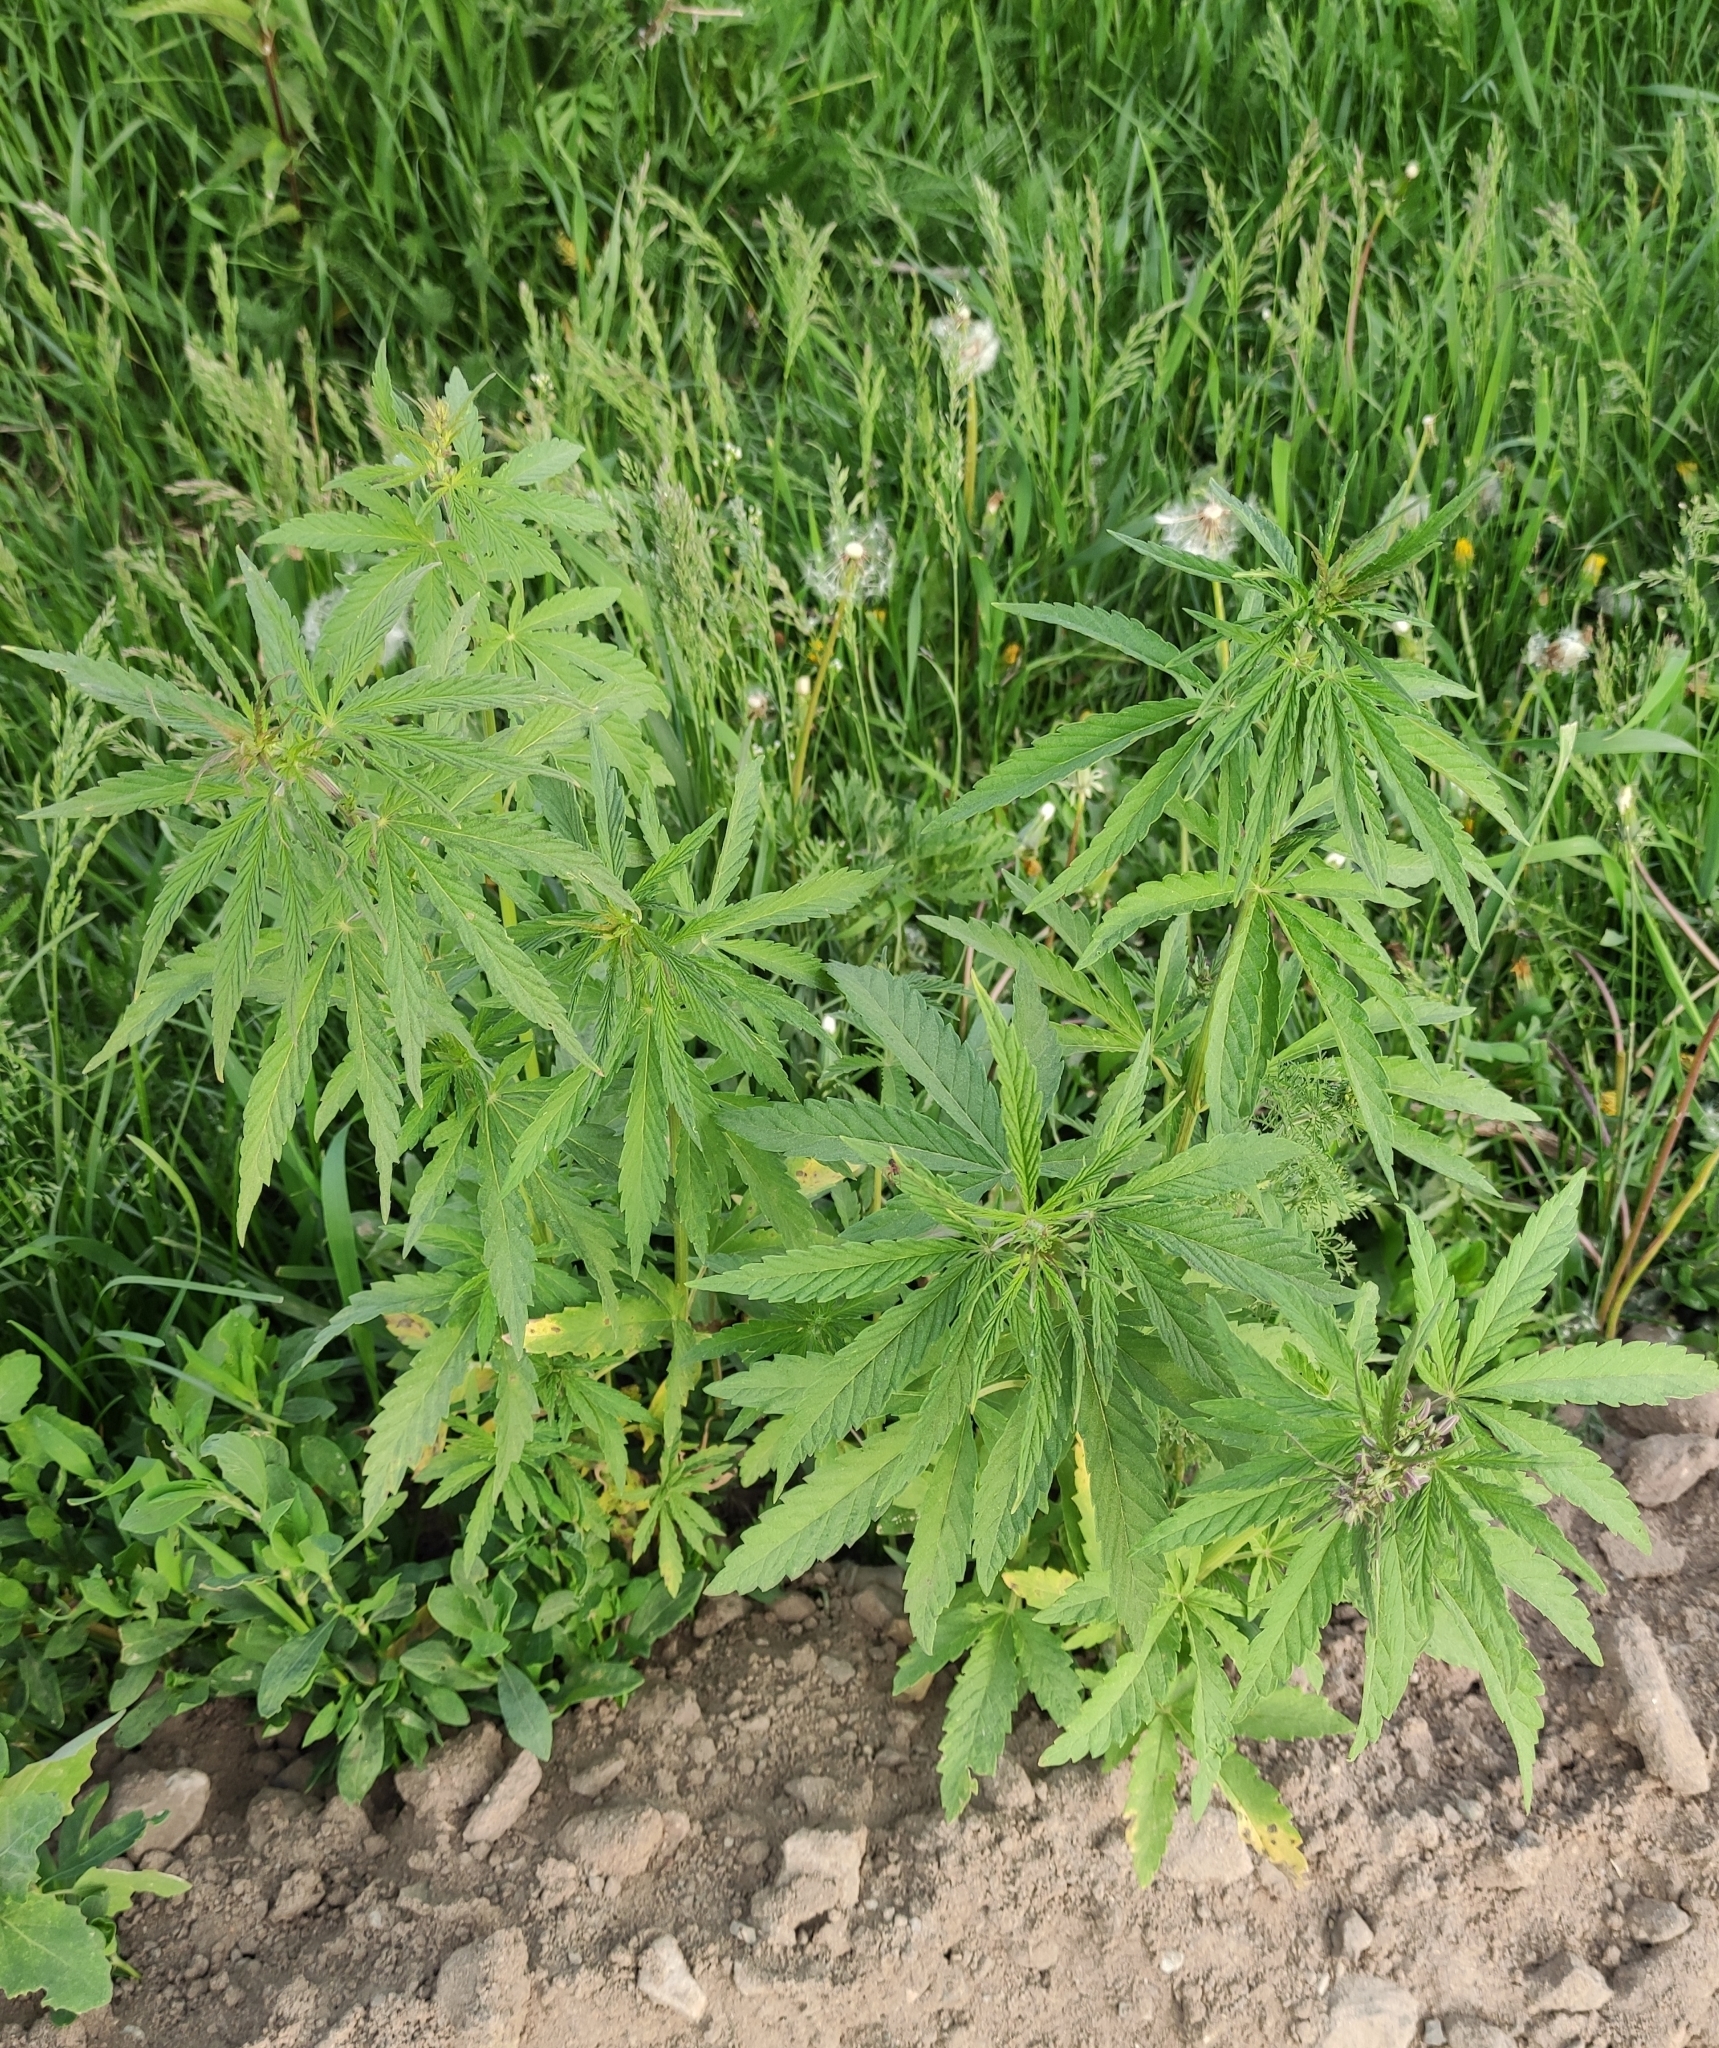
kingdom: Plantae
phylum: Tracheophyta
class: Magnoliopsida
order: Rosales
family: Cannabaceae
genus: Cannabis
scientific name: Cannabis sativa
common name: Hemp
